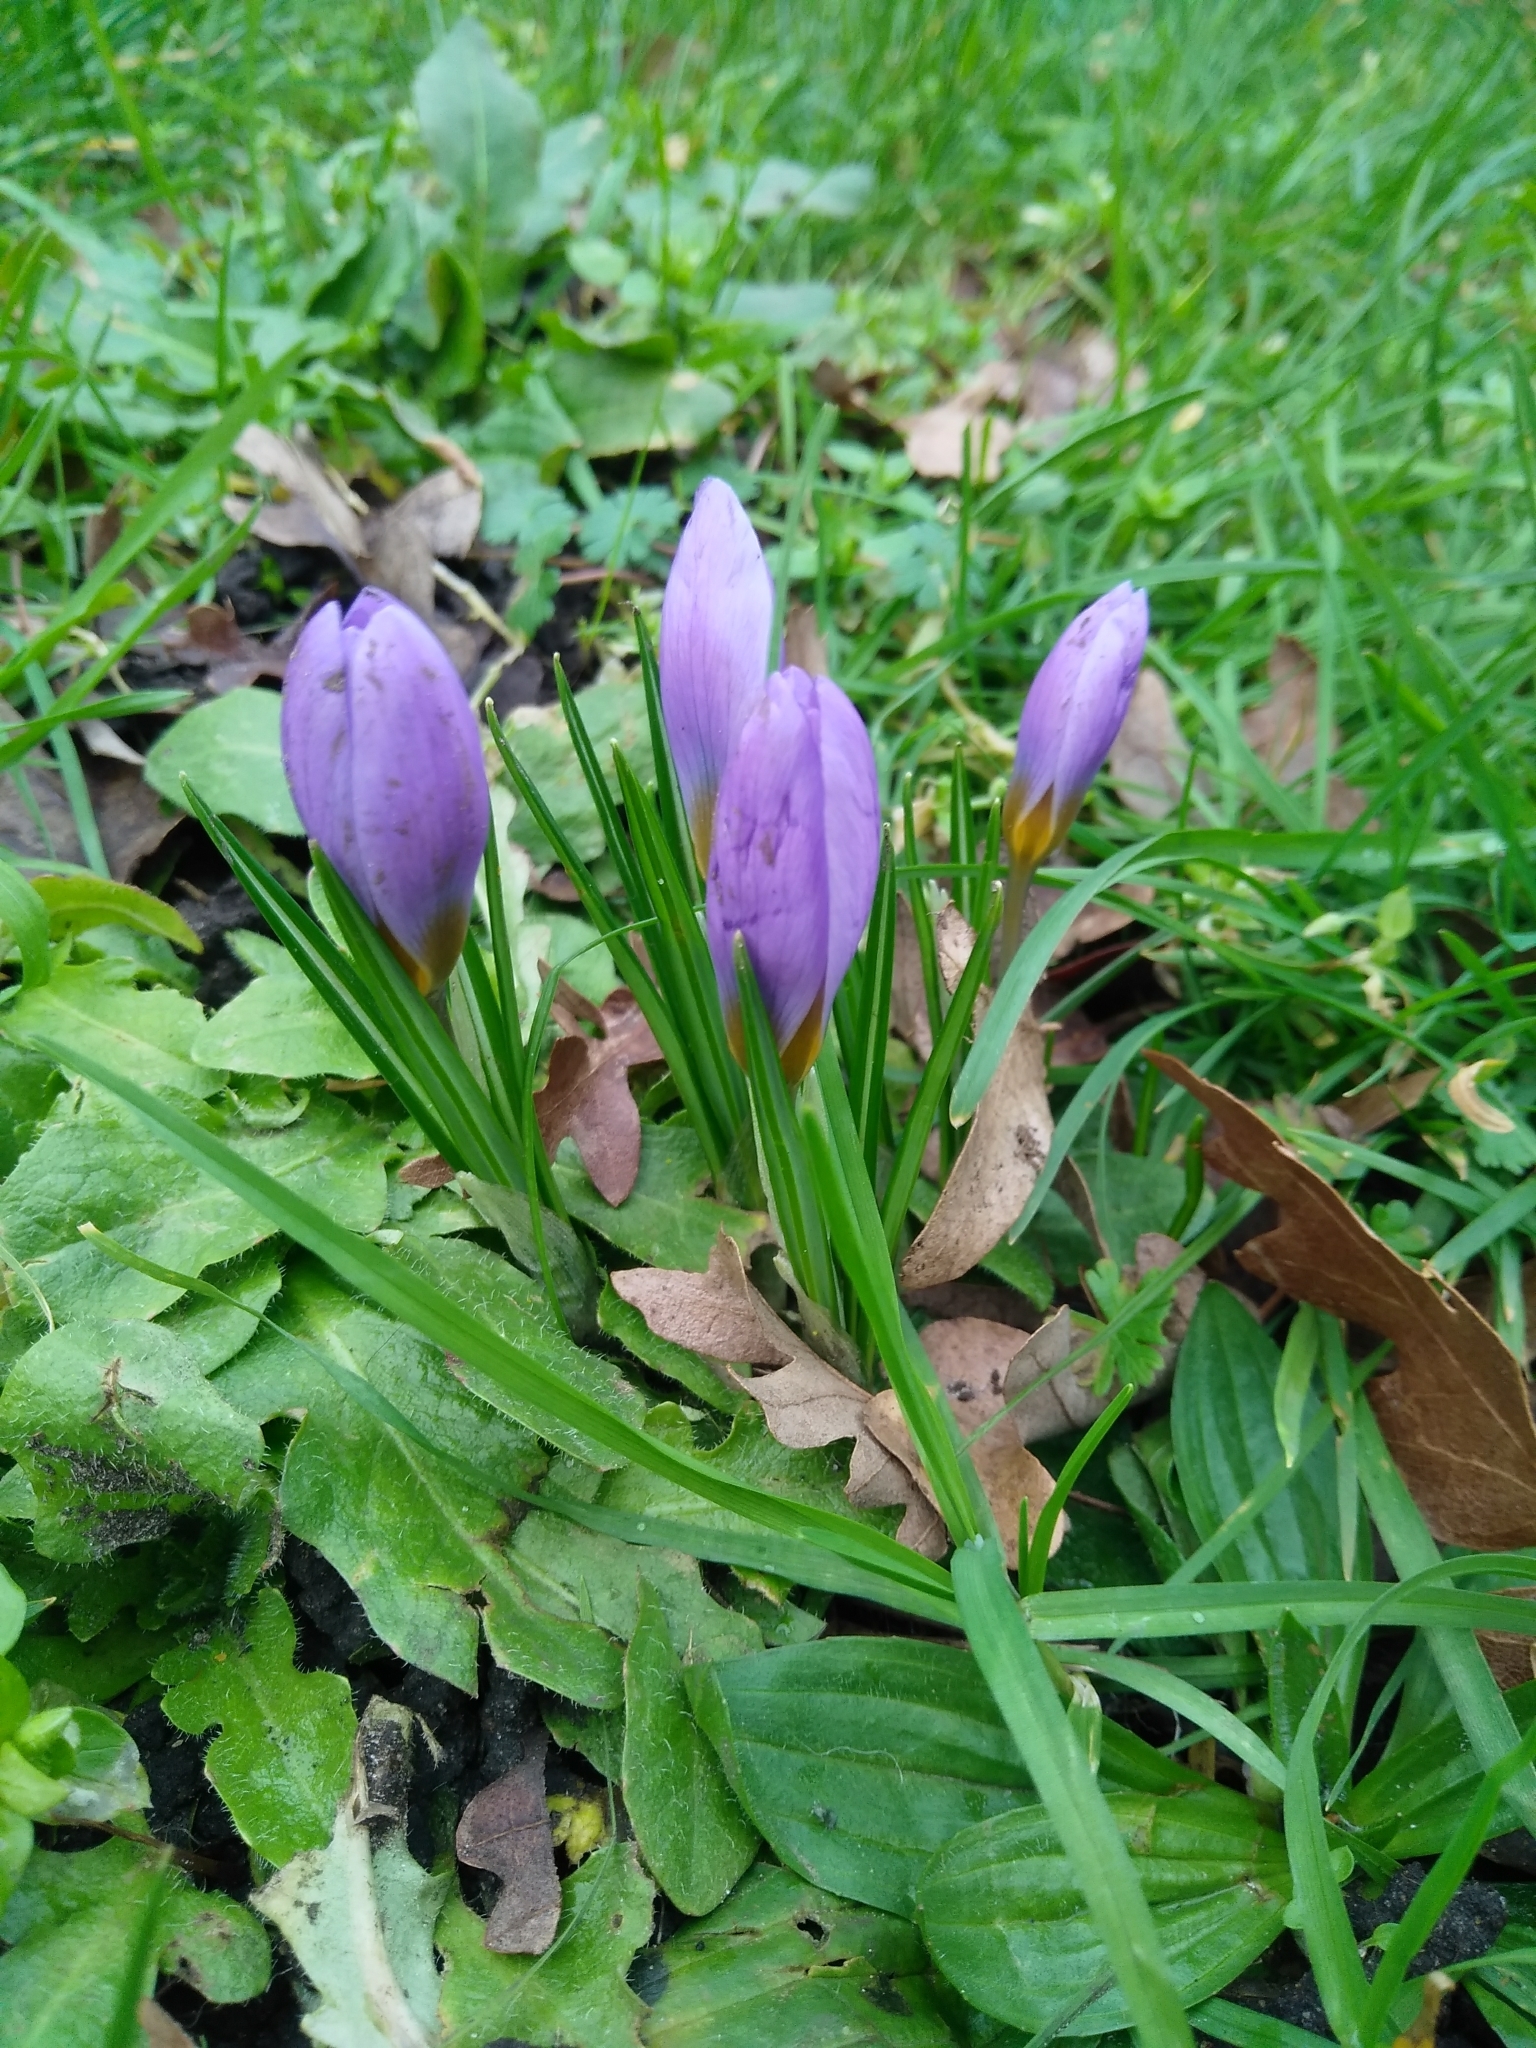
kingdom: Plantae
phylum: Tracheophyta
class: Liliopsida
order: Asparagales
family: Iridaceae
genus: Crocus
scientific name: Crocus atticus
